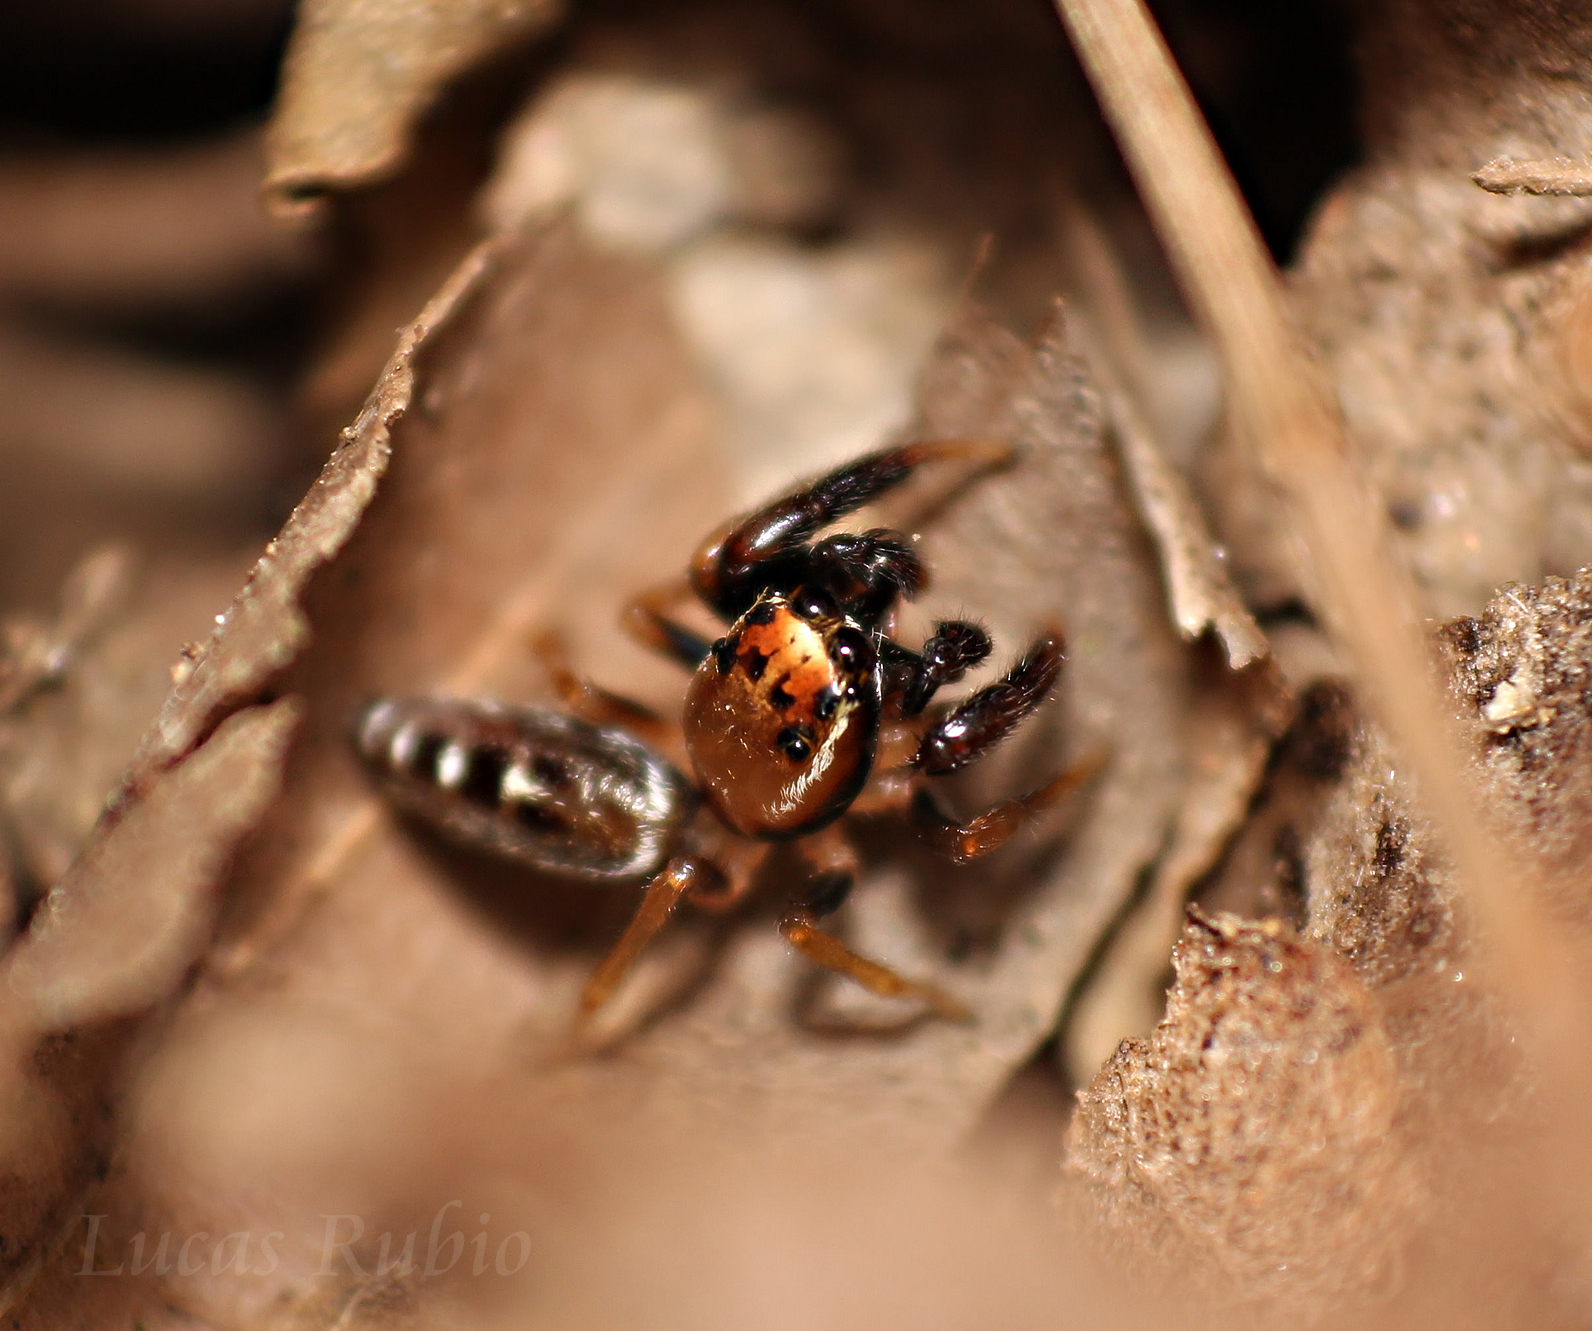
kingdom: Animalia
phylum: Arthropoda
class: Arachnida
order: Araneae
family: Salticidae
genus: Cotinusa
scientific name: Cotinusa vittata
